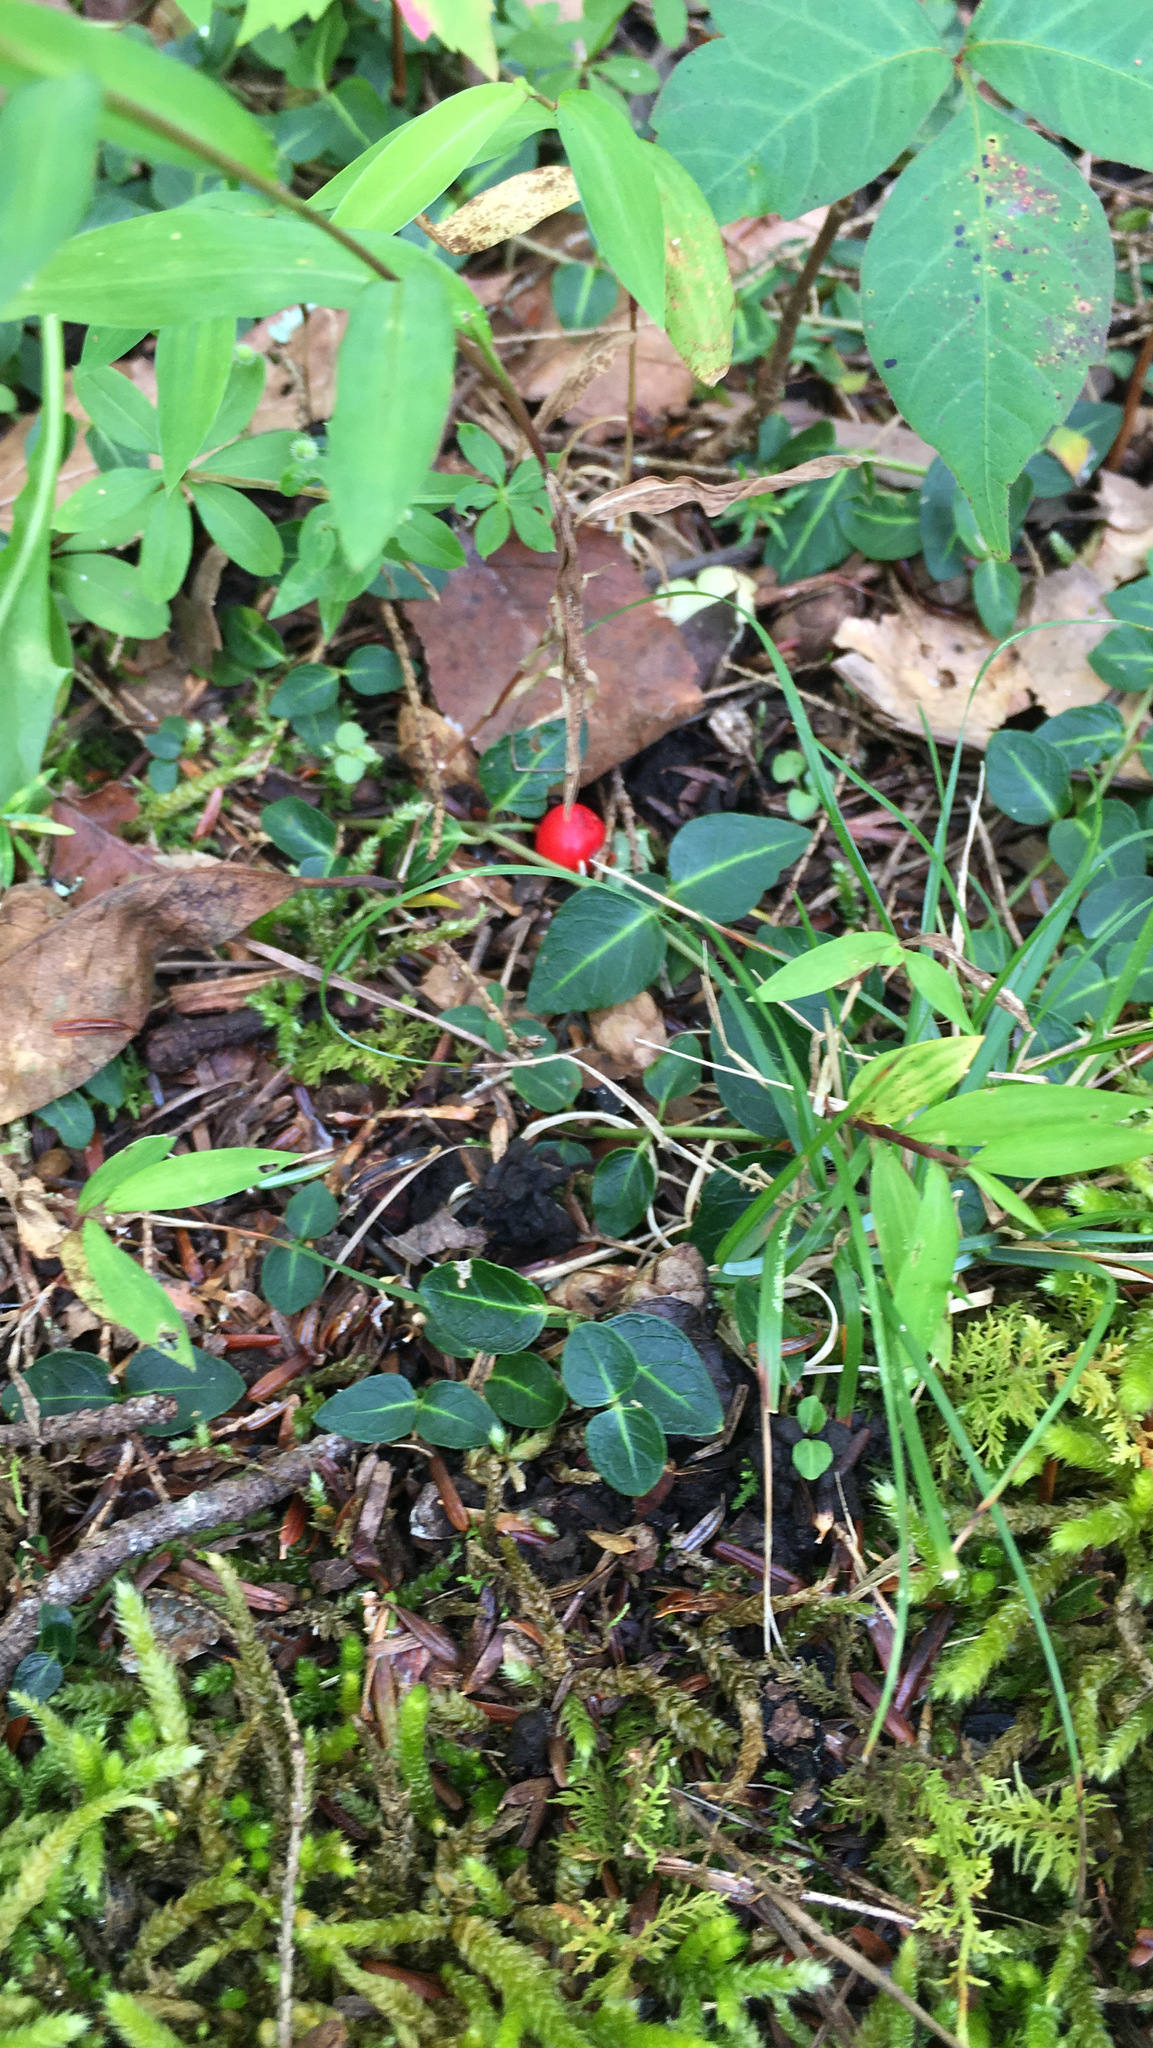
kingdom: Plantae
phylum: Tracheophyta
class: Magnoliopsida
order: Gentianales
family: Rubiaceae
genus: Mitchella
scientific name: Mitchella repens
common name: Partridge-berry
